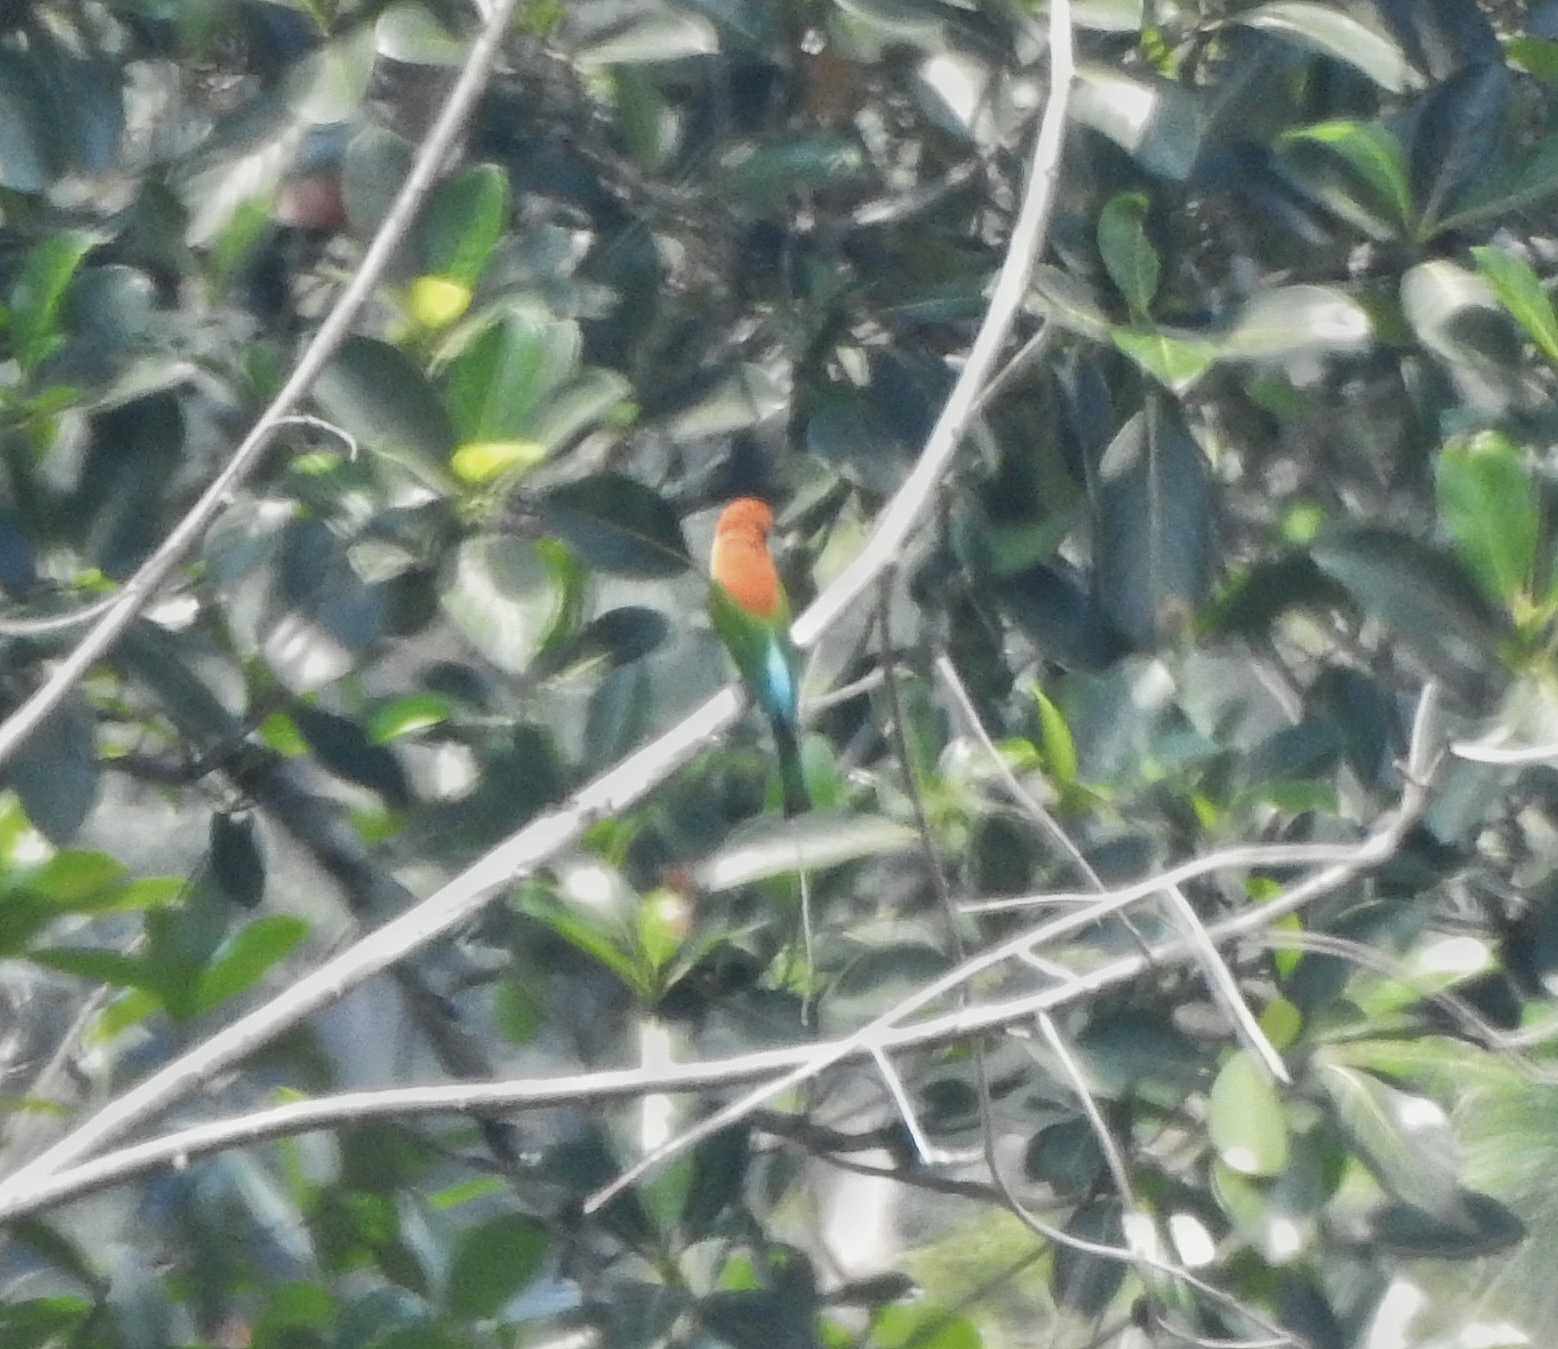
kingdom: Animalia
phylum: Chordata
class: Aves
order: Coraciiformes
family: Meropidae
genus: Merops
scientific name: Merops leschenaulti
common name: Chestnut-headed bee-eater
